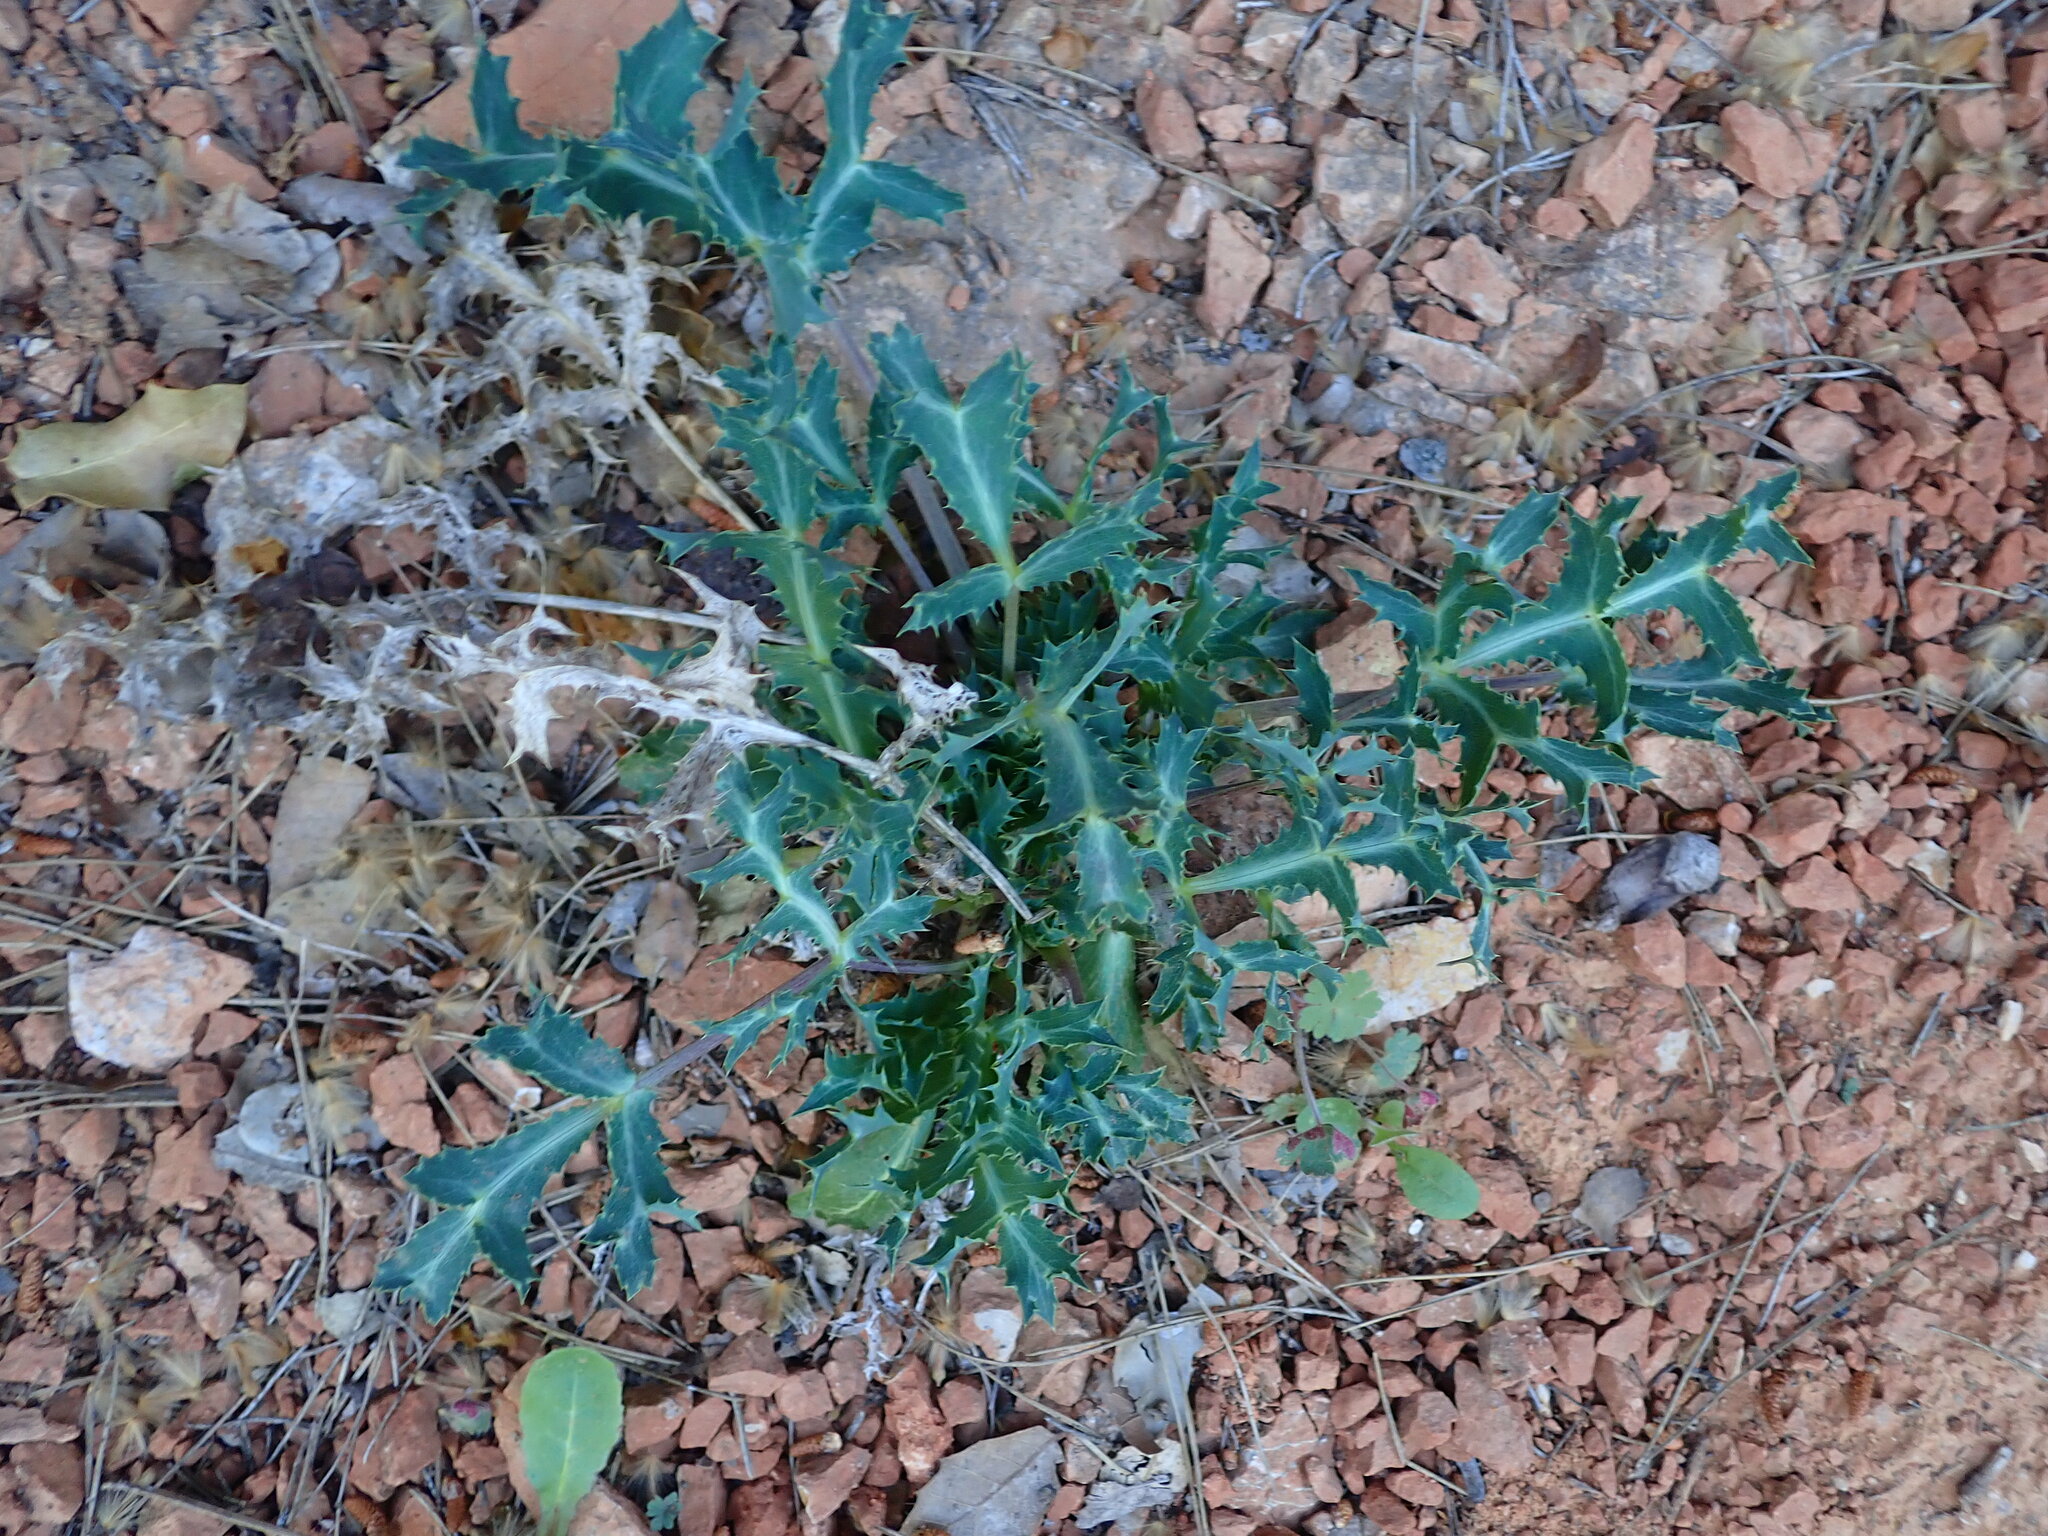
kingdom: Plantae
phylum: Tracheophyta
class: Magnoliopsida
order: Apiales
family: Apiaceae
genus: Eryngium
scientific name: Eryngium campestre
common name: Field eryngo
